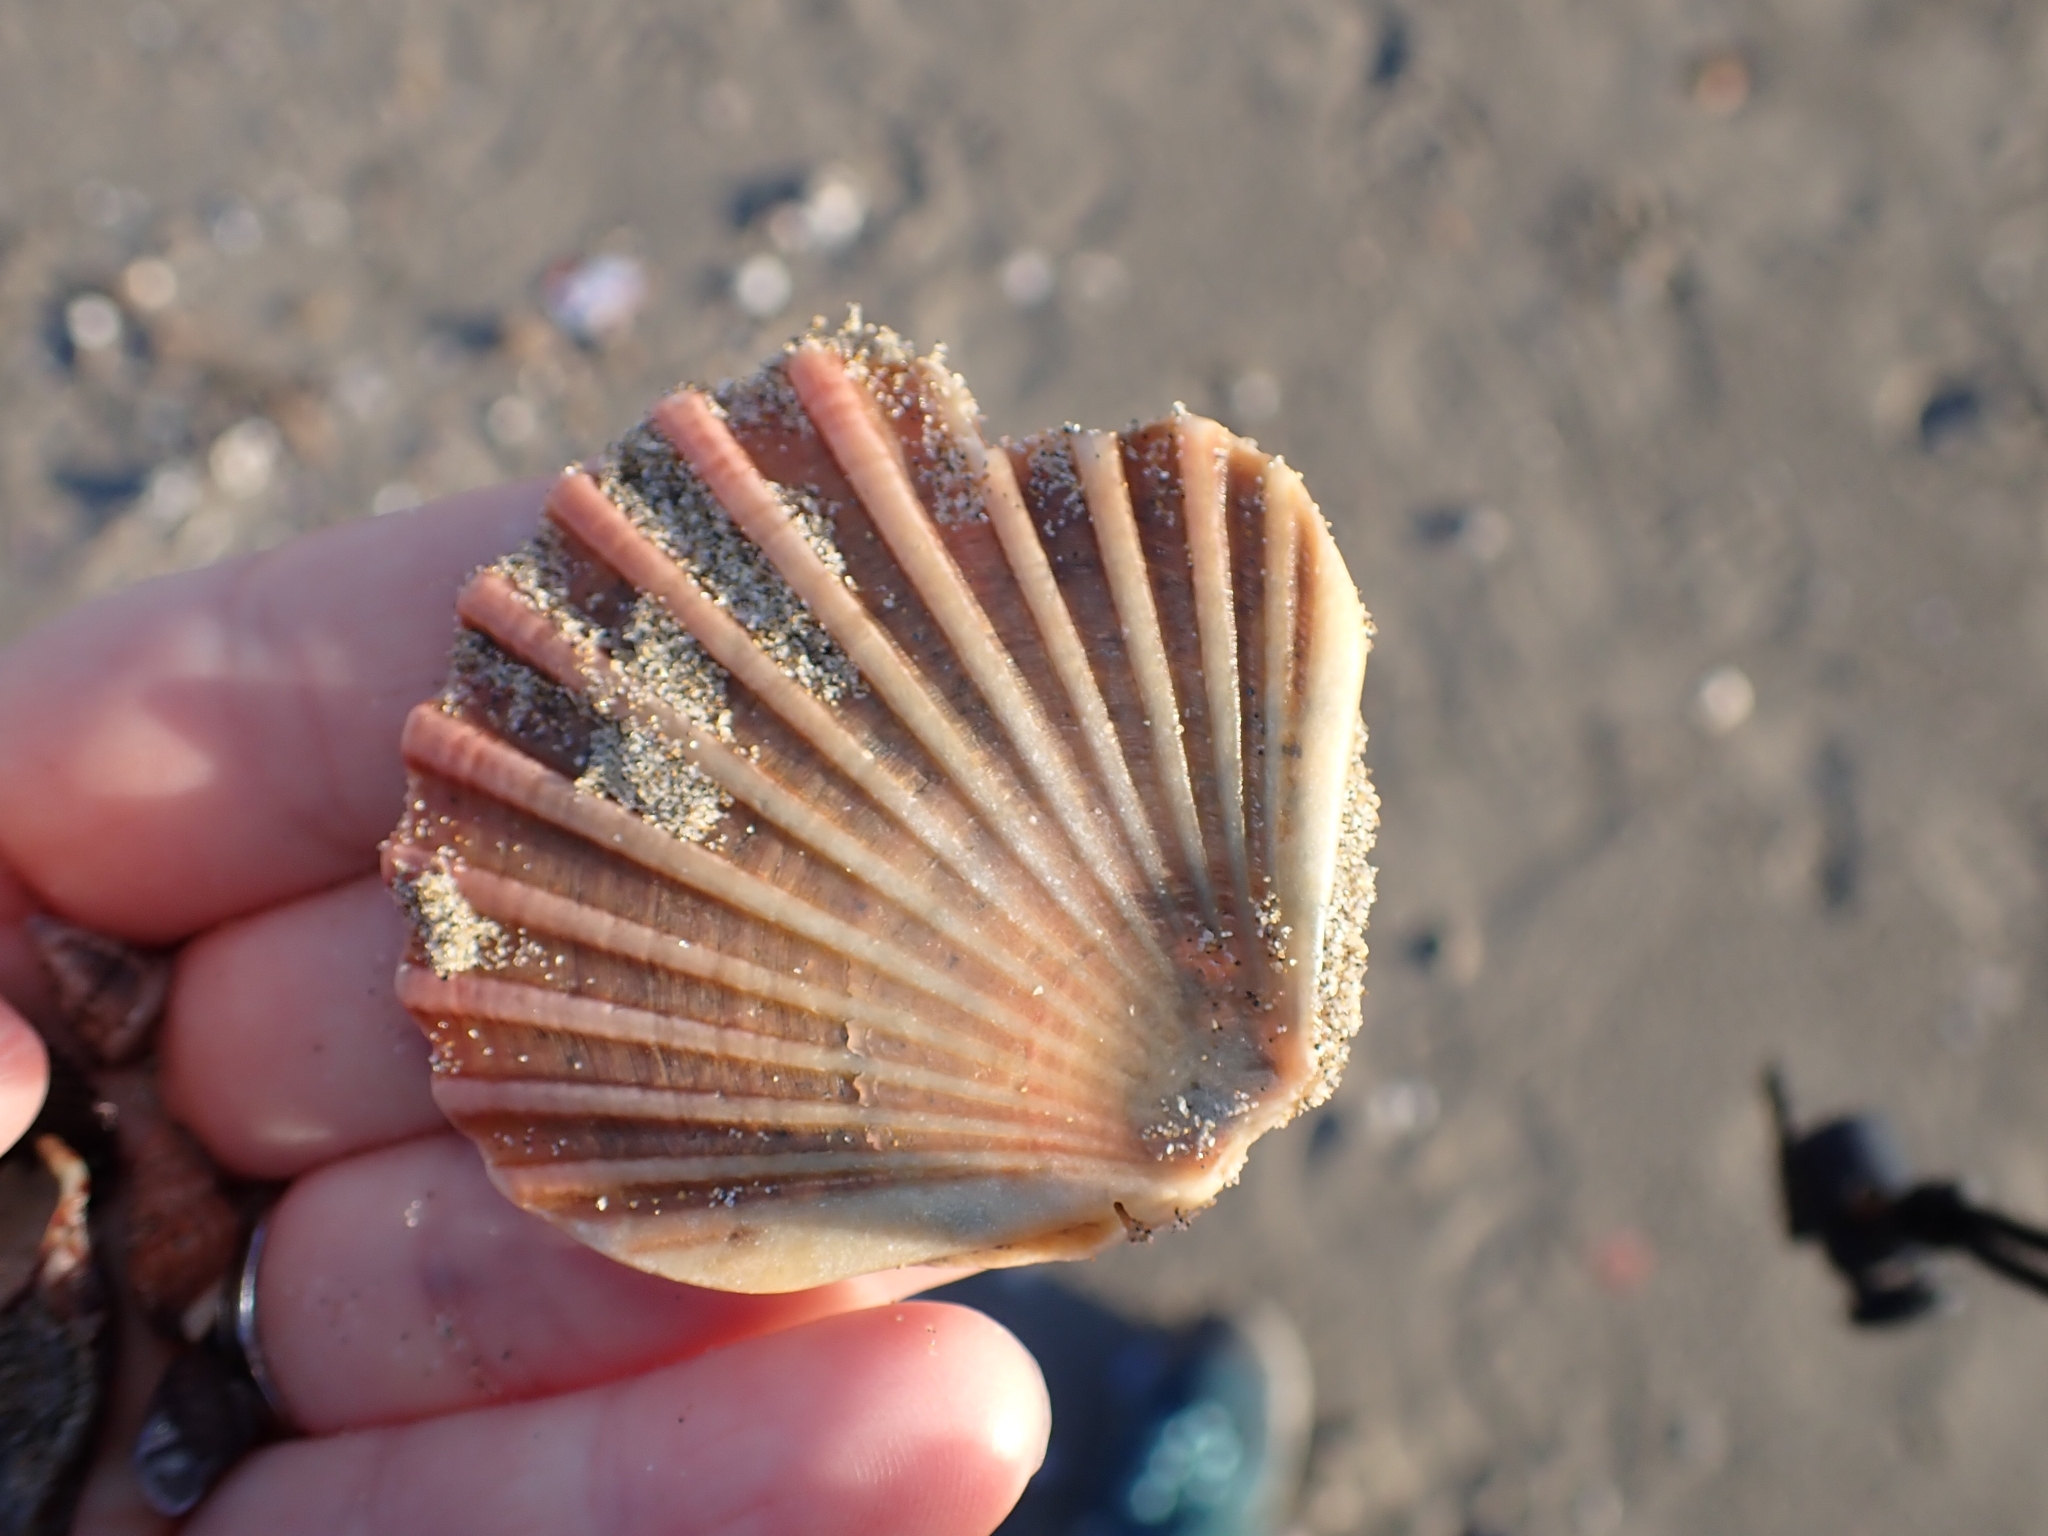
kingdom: Animalia
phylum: Mollusca
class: Bivalvia
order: Pectinida
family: Pectinidae
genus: Pecten
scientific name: Pecten jacobaeus
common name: St.james's scallop
